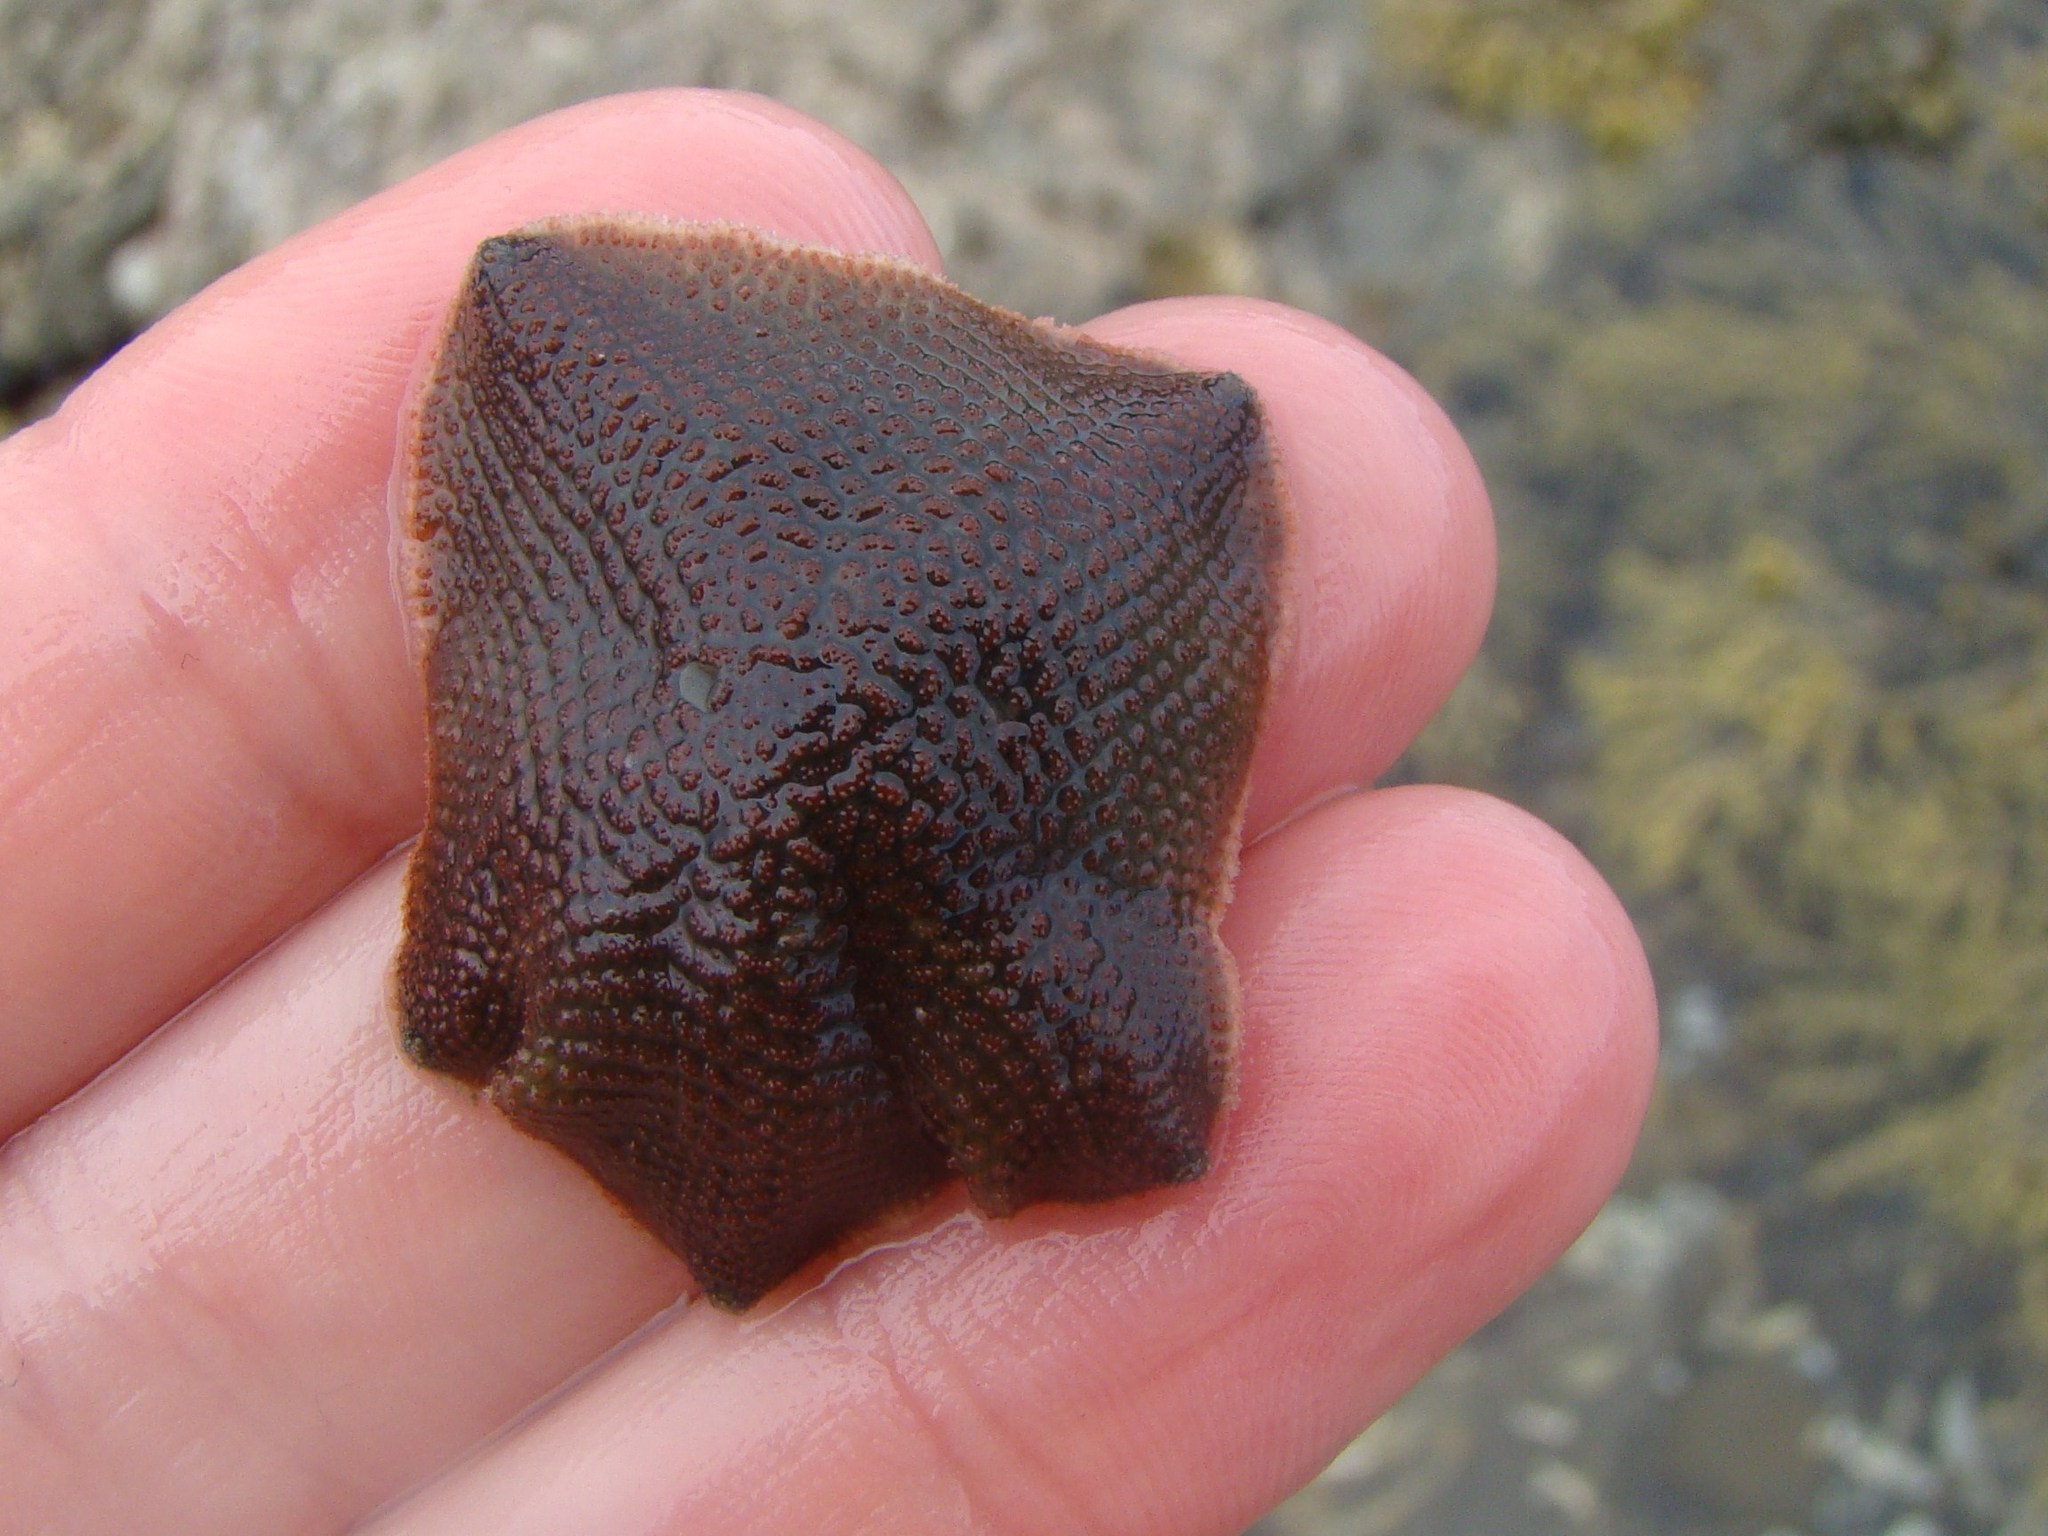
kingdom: Animalia
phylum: Echinodermata
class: Asteroidea
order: Valvatida
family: Asterinidae
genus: Patiriella
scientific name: Patiriella regularis
